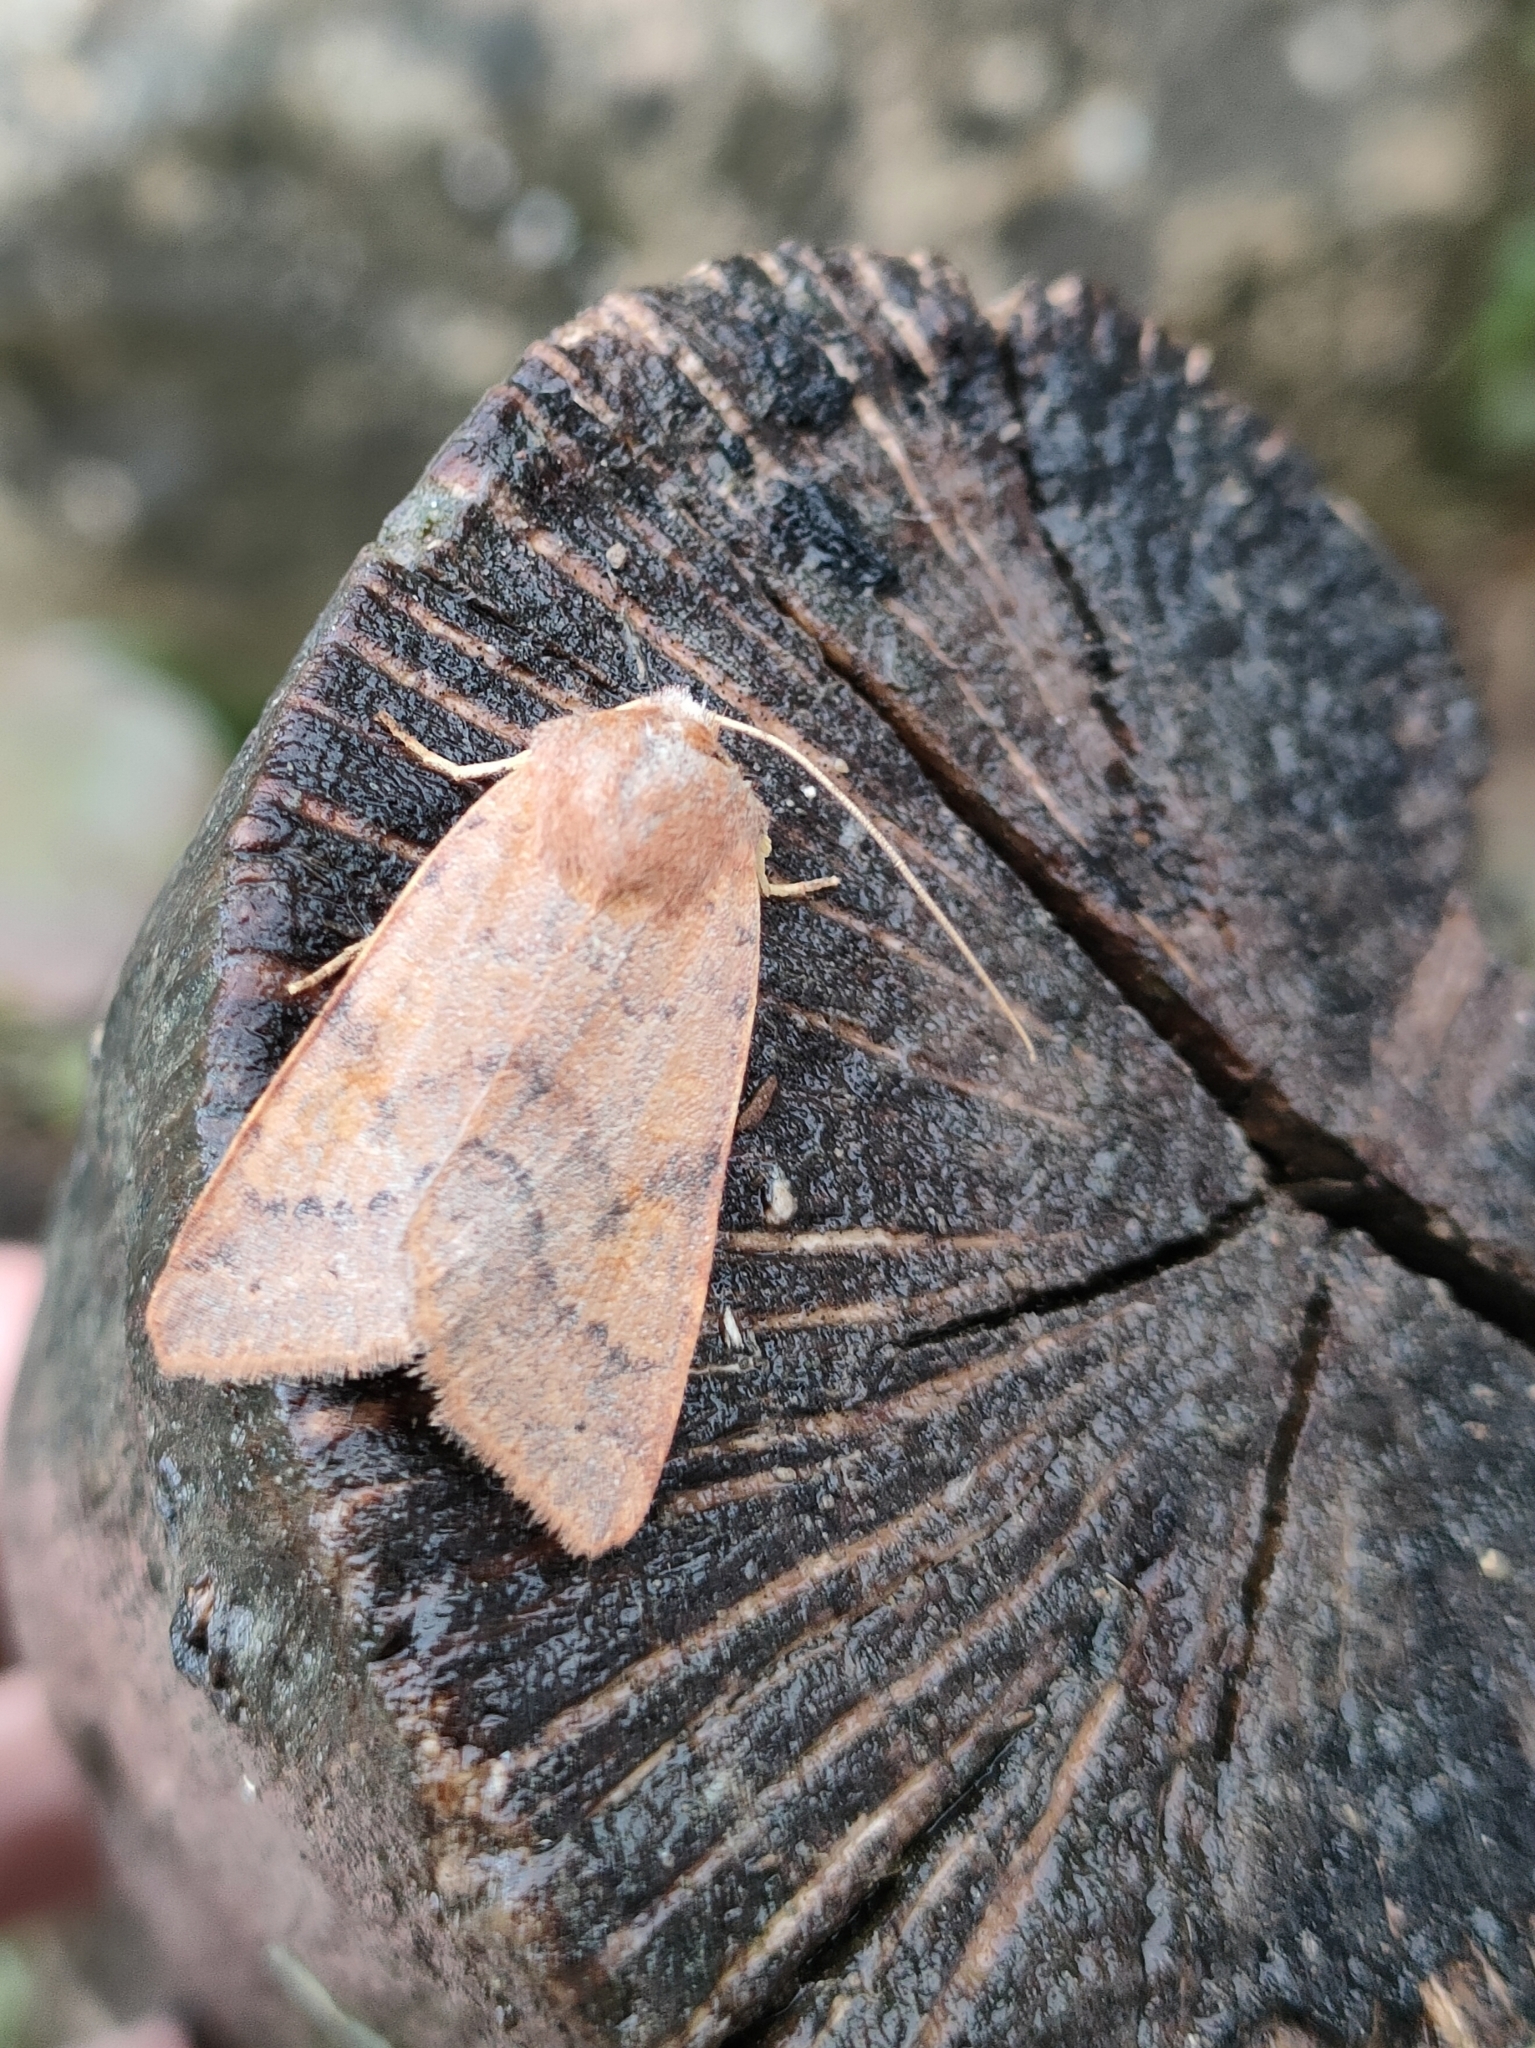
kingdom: Animalia
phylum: Arthropoda
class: Insecta
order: Lepidoptera
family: Noctuidae
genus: Agrochola
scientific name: Agrochola helvola
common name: Flounced chestnut
